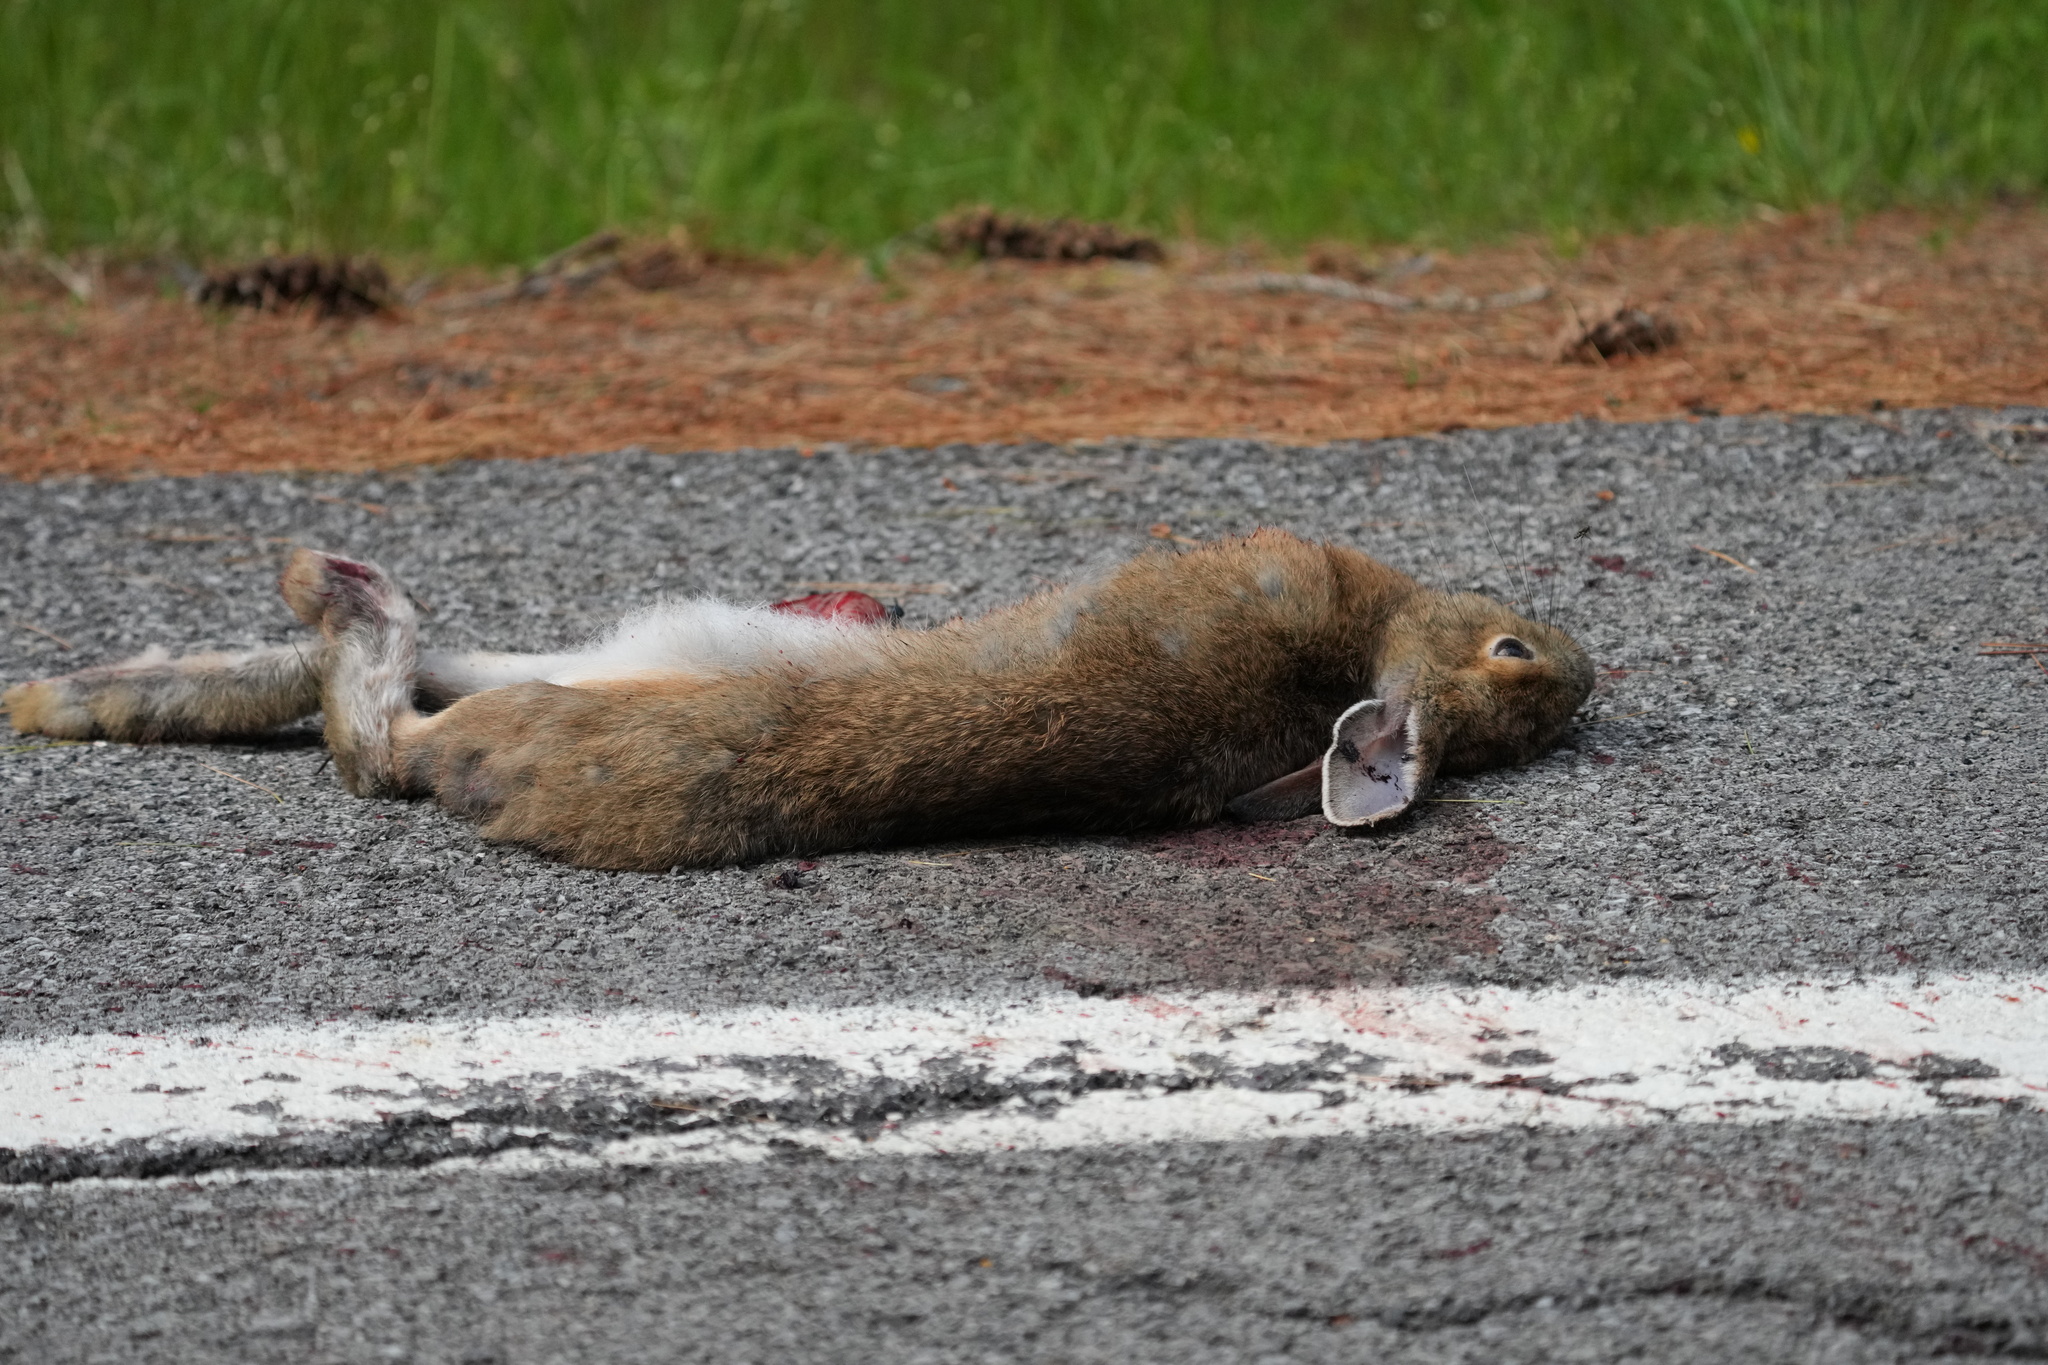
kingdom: Animalia
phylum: Chordata
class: Mammalia
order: Lagomorpha
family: Leporidae
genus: Lepus
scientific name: Lepus americanus
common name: Snowshoe hare
